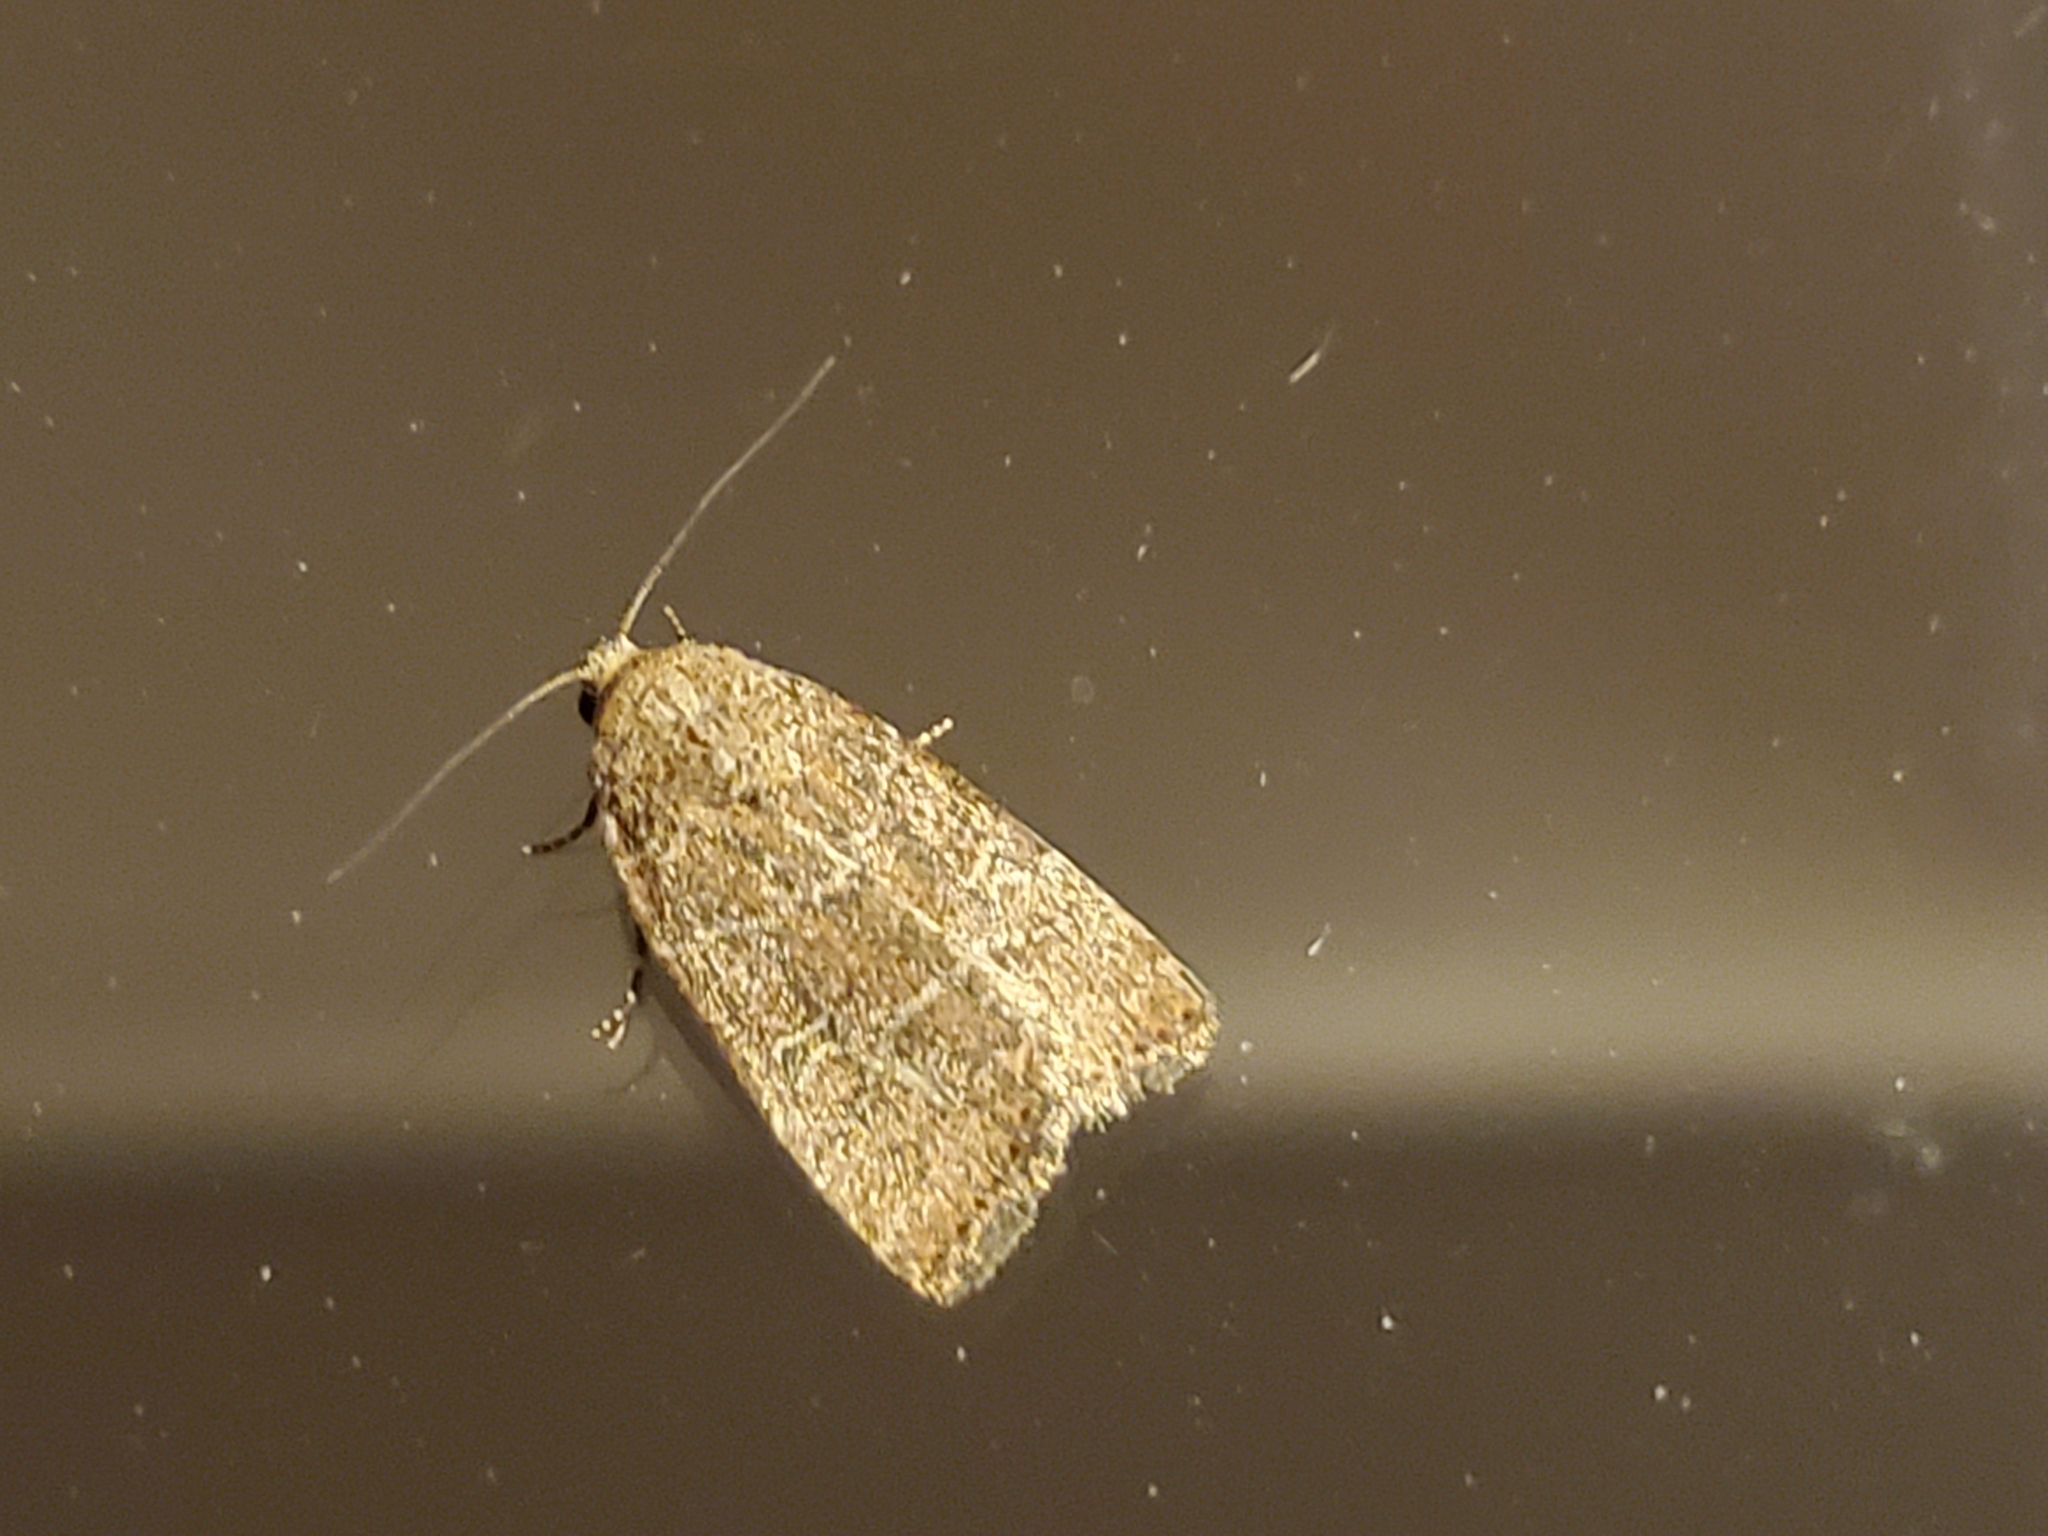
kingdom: Animalia
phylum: Arthropoda
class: Insecta
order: Lepidoptera
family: Noctuidae
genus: Elaphria
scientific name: Elaphria grata
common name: Grateful midget moth
